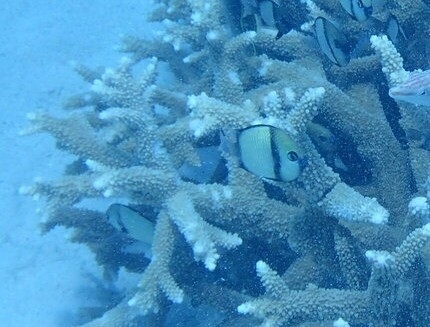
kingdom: Animalia
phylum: Chordata
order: Perciformes
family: Pomacentridae
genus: Dascyllus
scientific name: Dascyllus reticulatus
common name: Reticulated dascyllus
